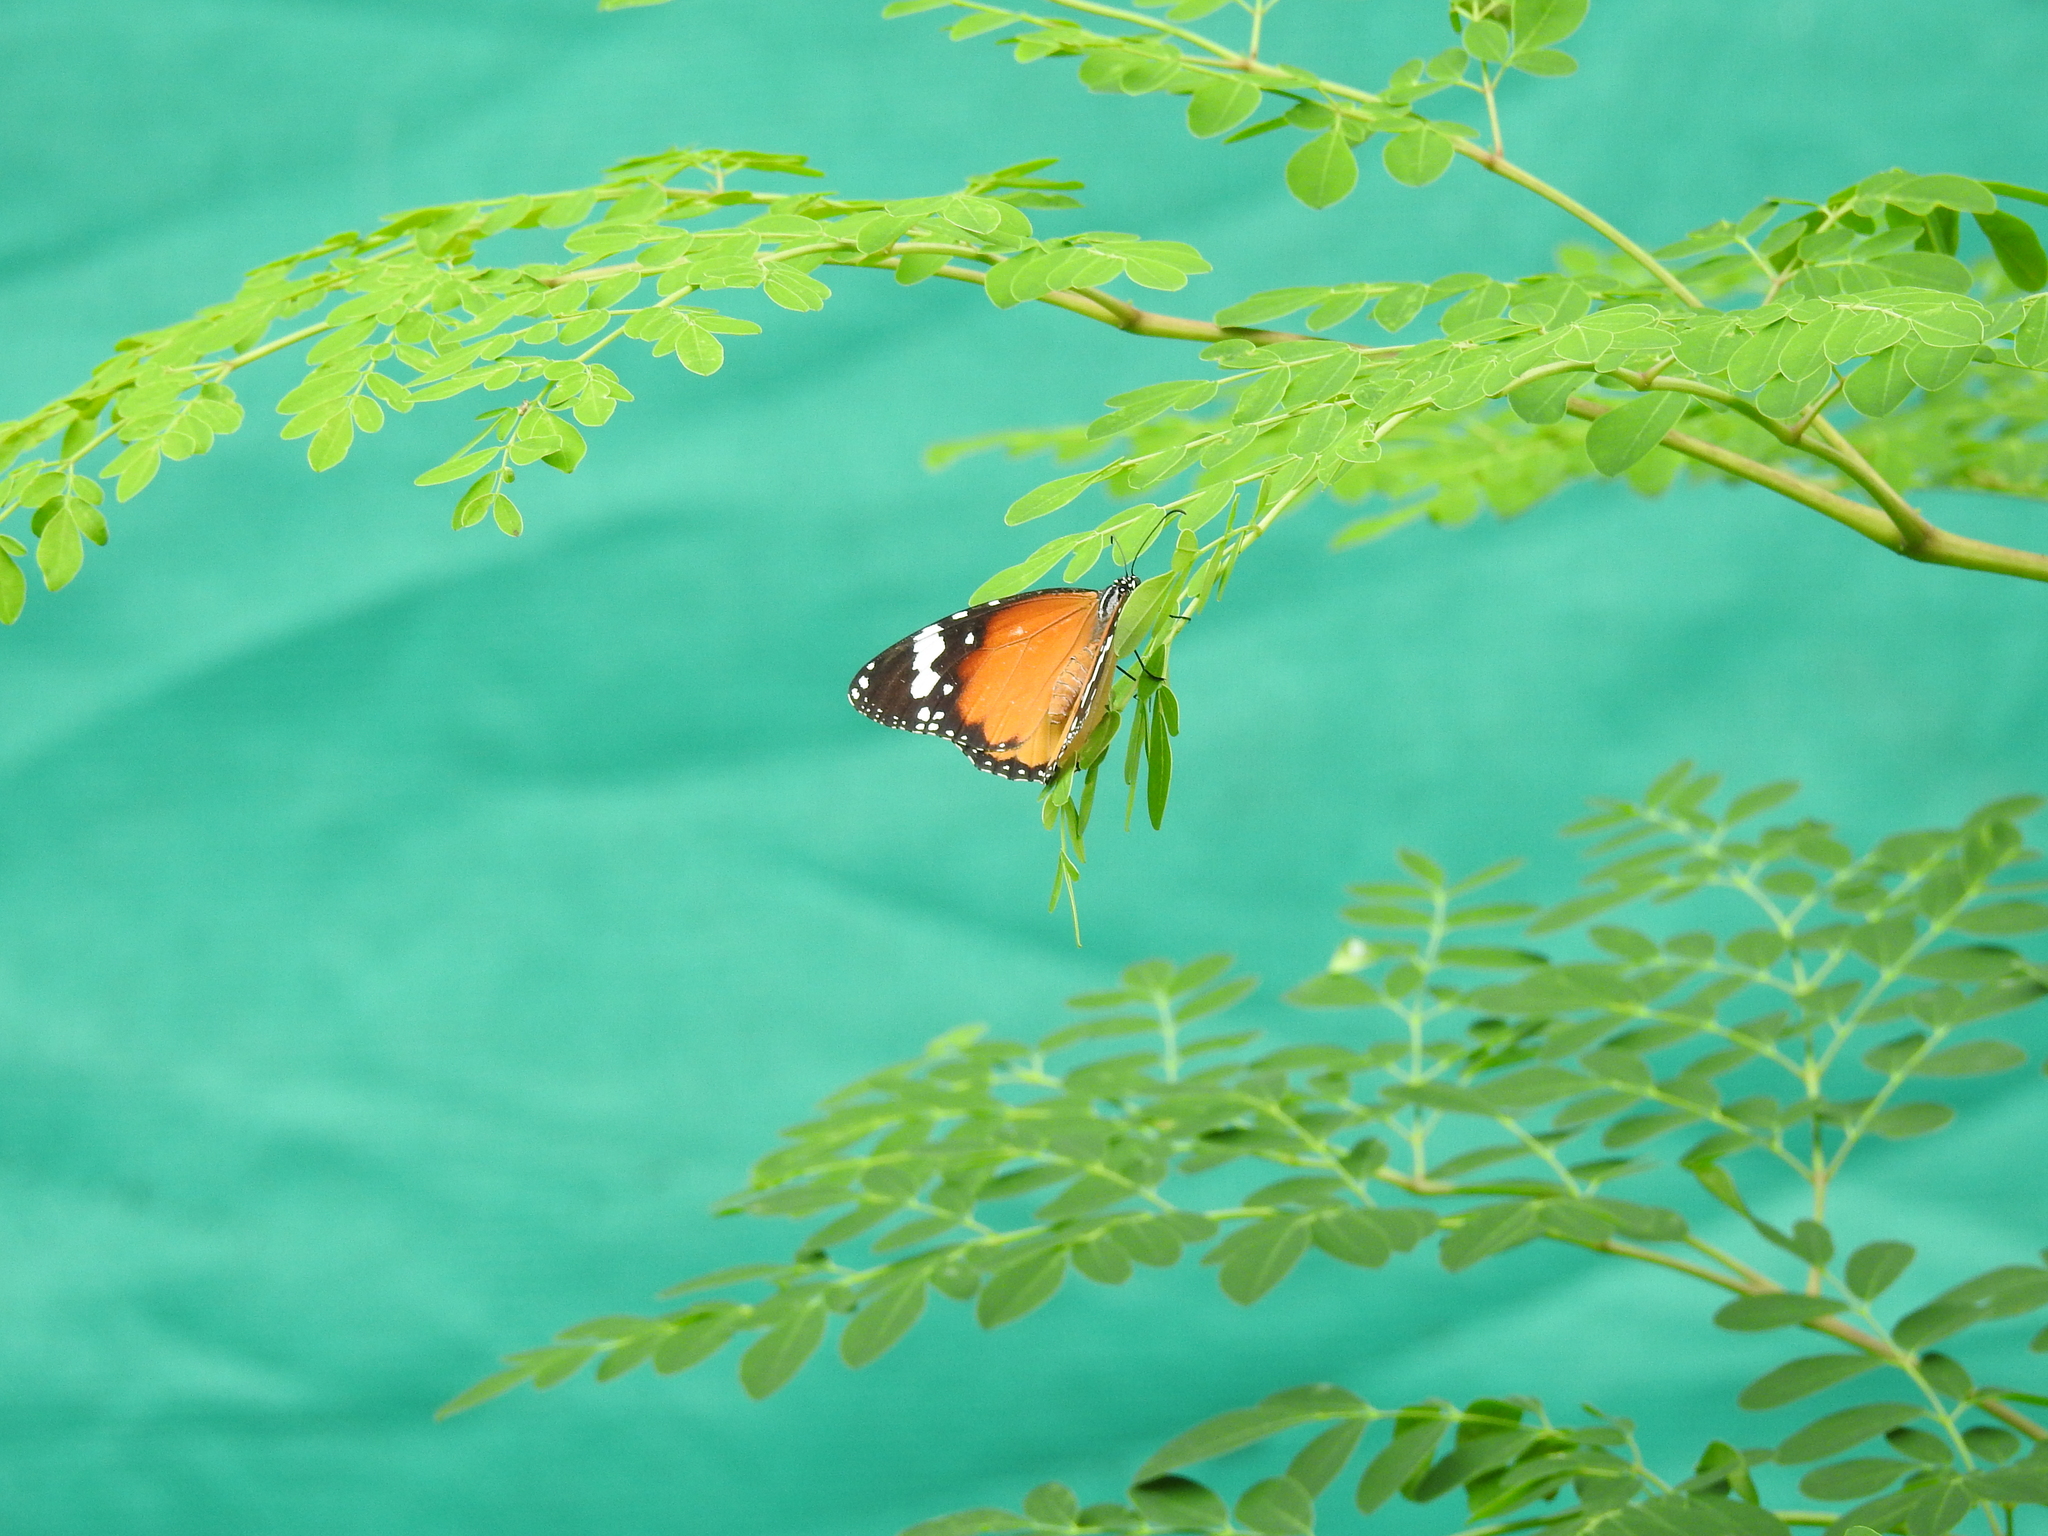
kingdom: Animalia
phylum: Arthropoda
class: Insecta
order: Lepidoptera
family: Nymphalidae
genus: Danaus
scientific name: Danaus chrysippus
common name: Plain tiger
